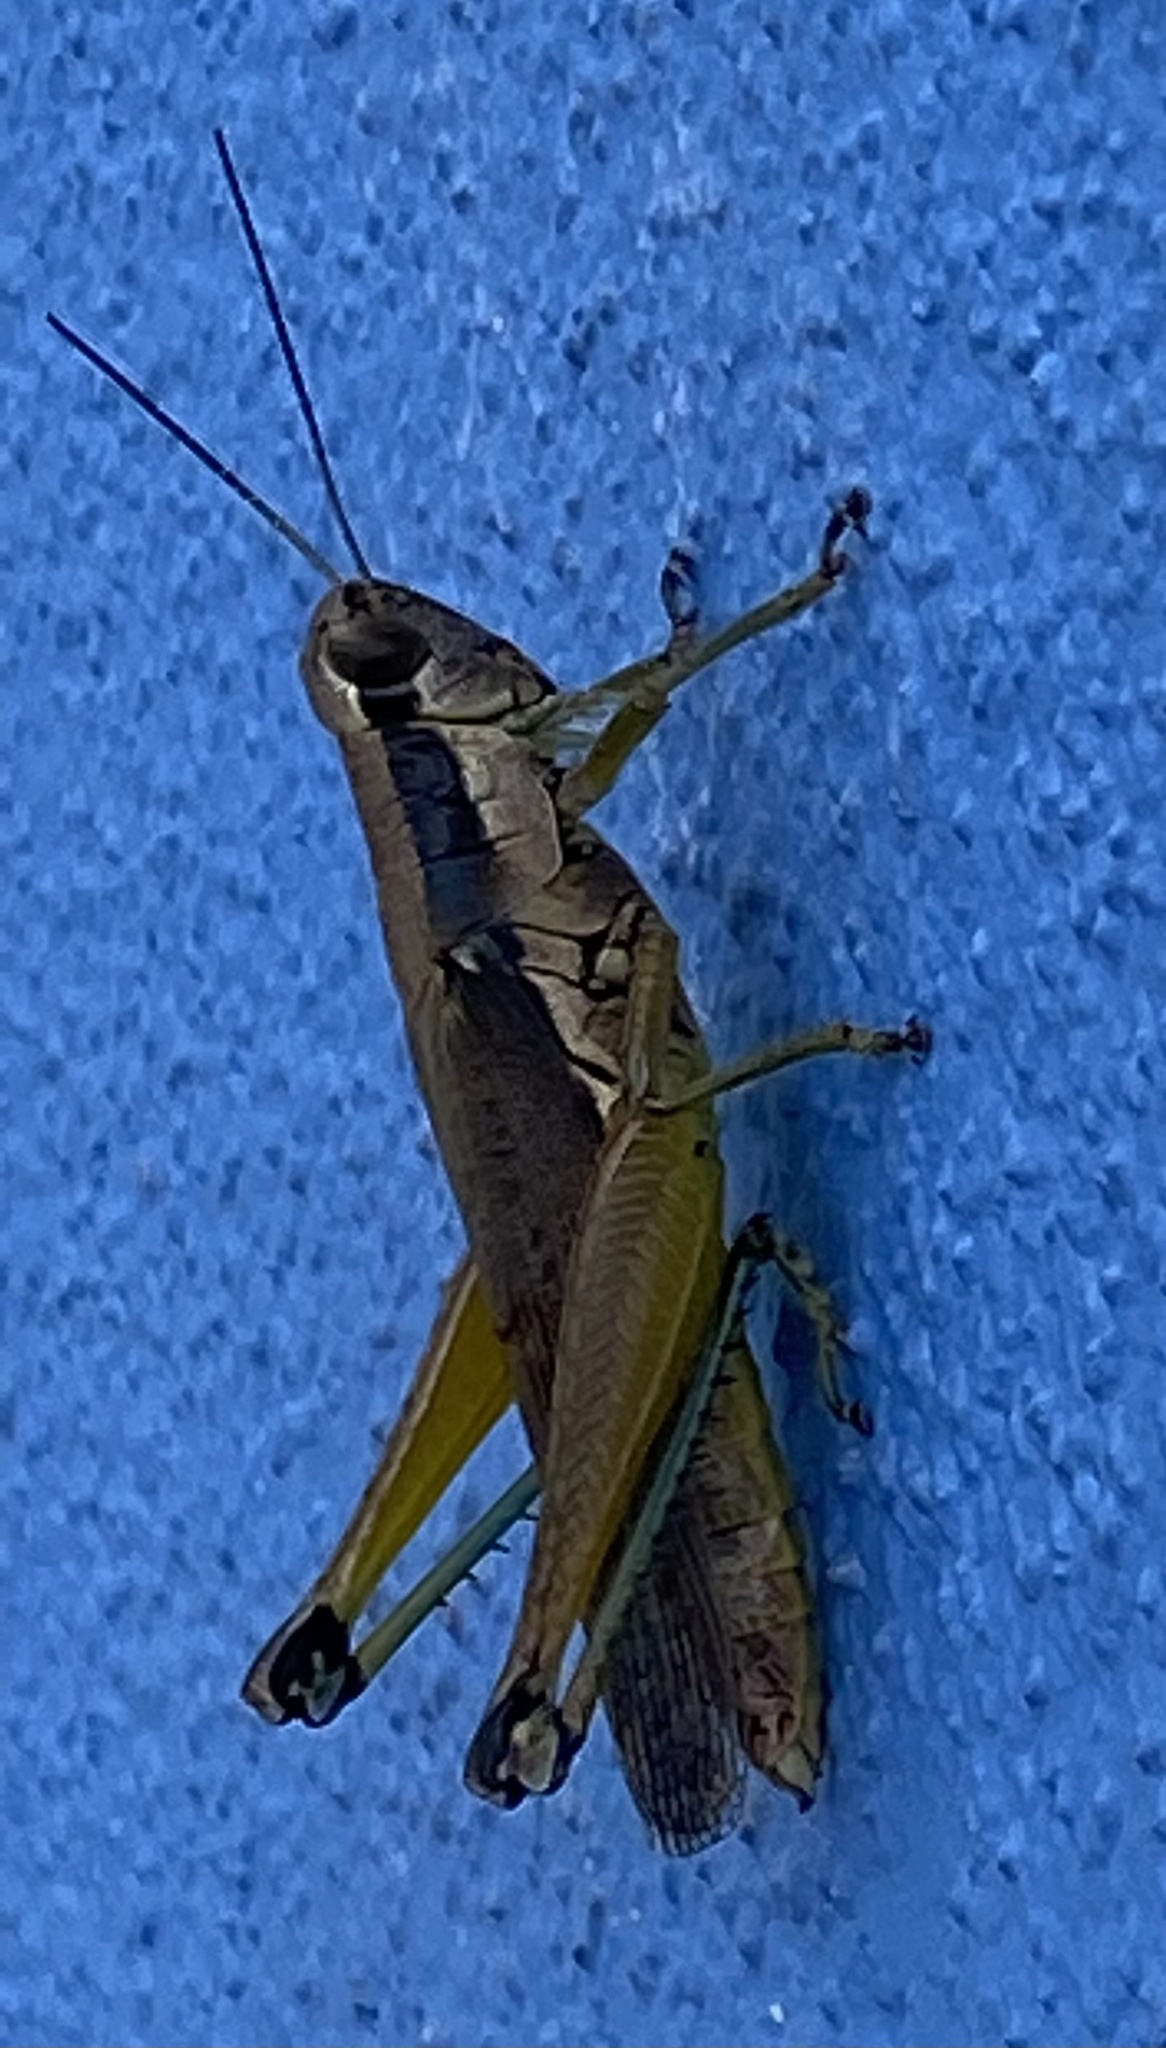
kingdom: Animalia
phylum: Arthropoda
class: Insecta
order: Orthoptera
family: Acrididae
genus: Paroxya
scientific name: Paroxya clavuligera
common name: Olive-green swamp grasshopper
